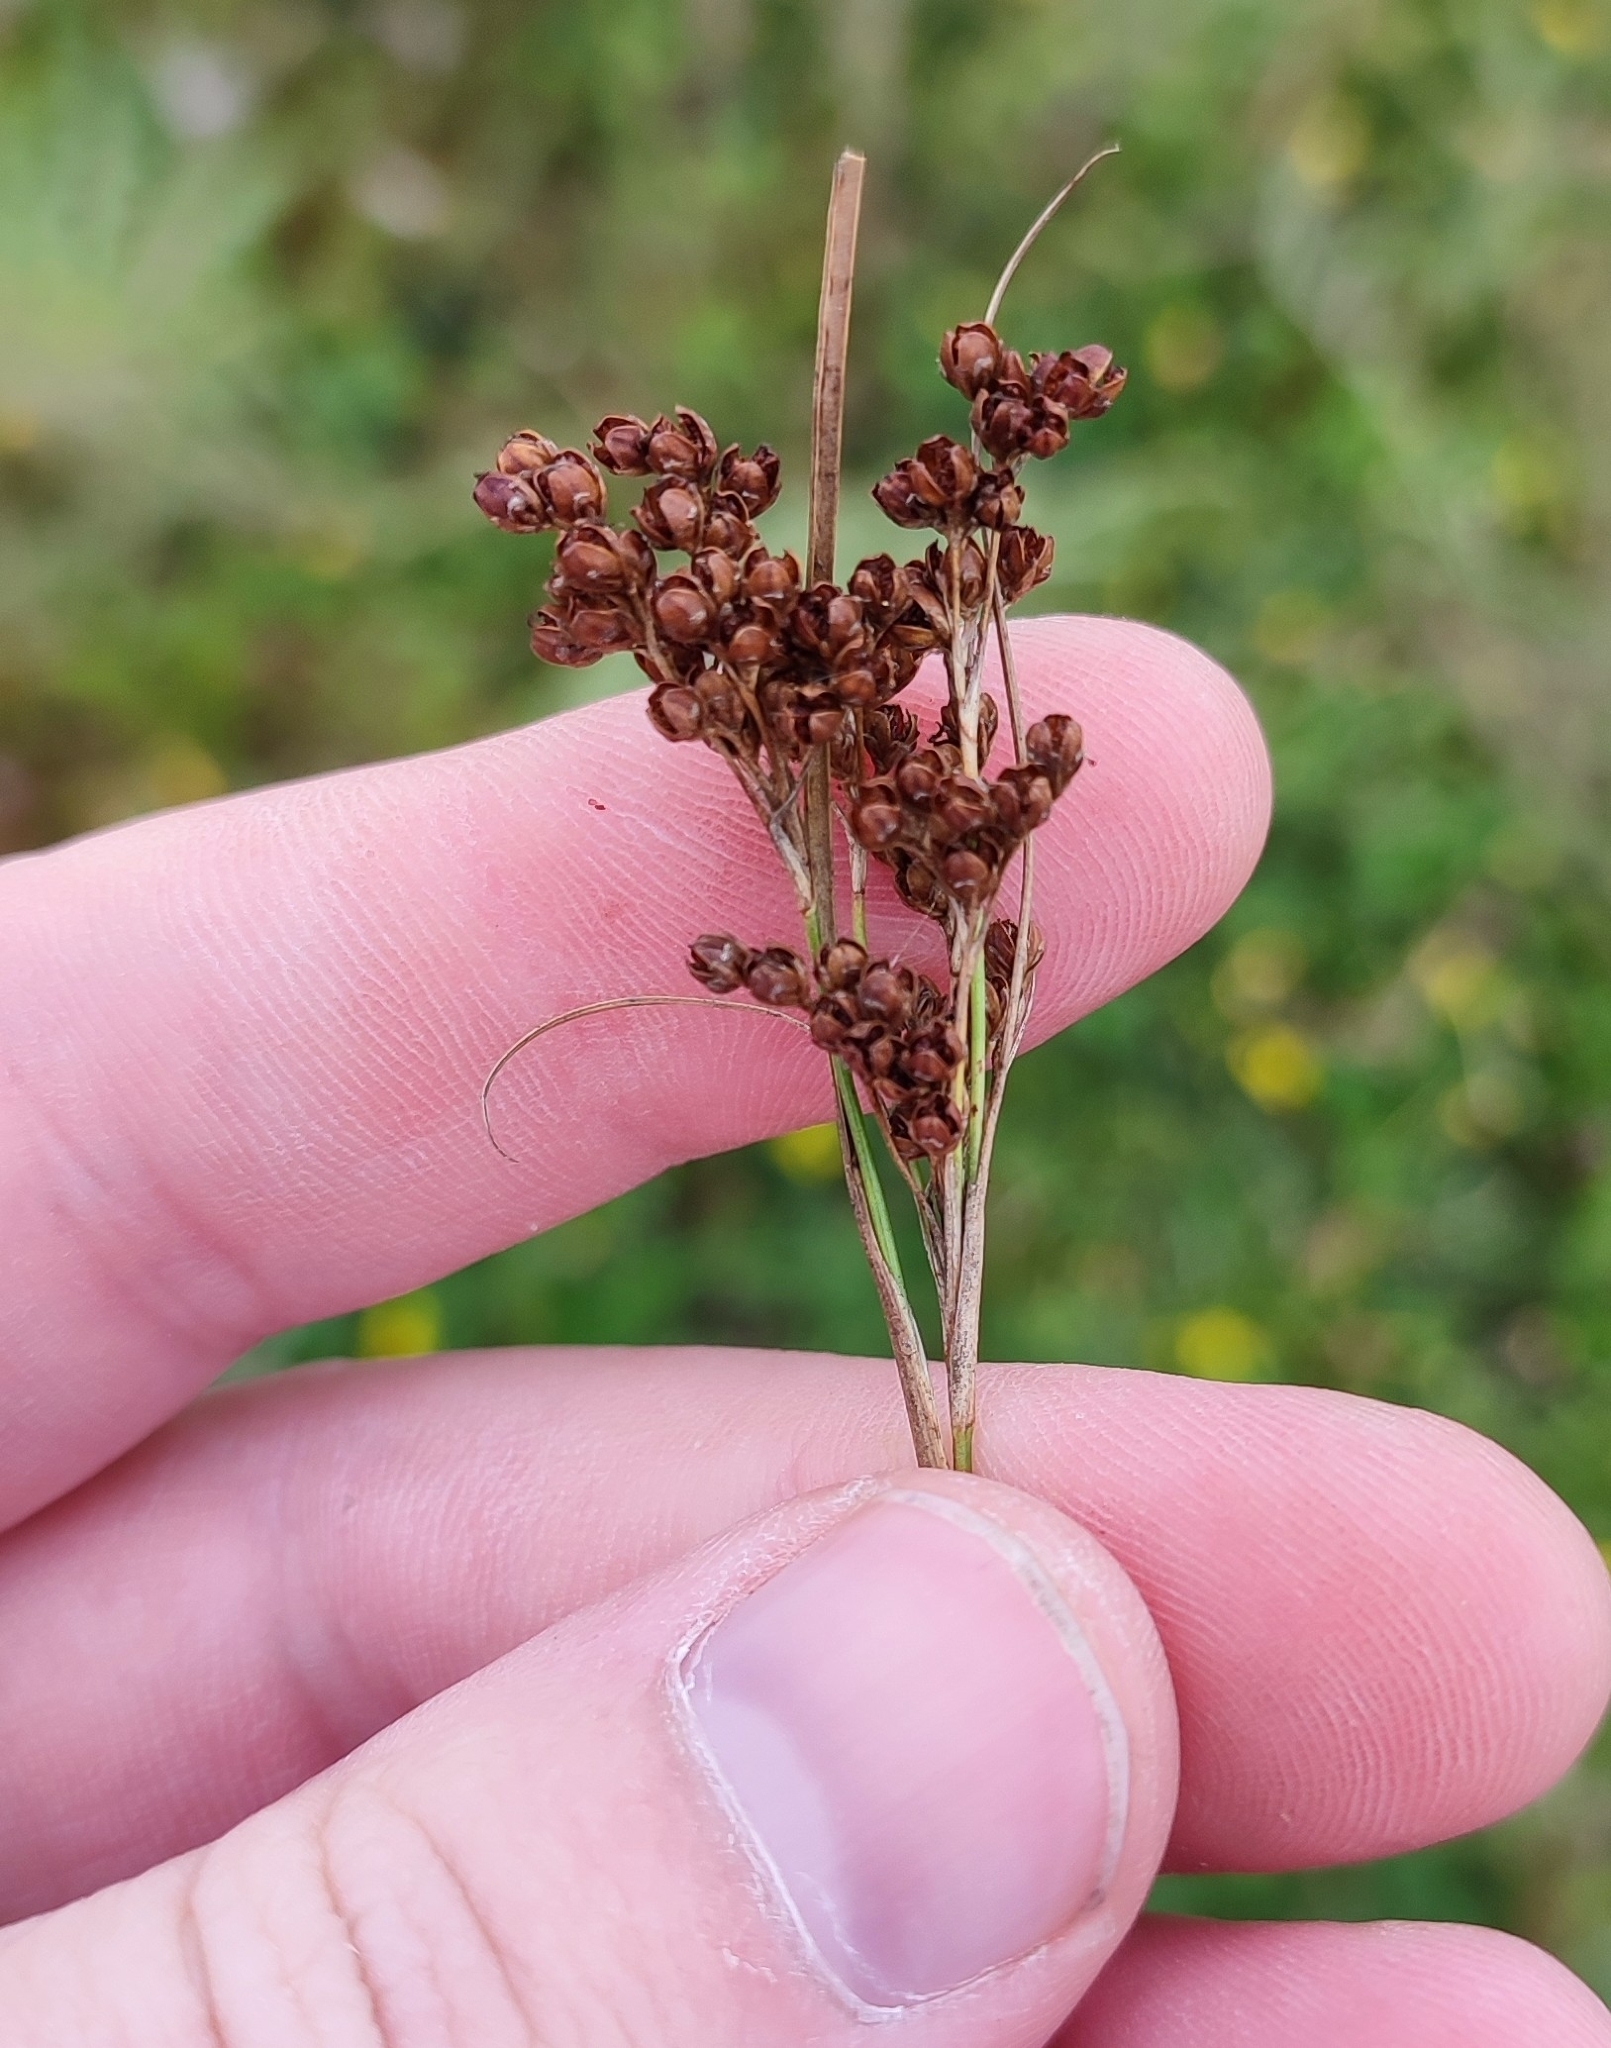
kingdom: Plantae
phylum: Tracheophyta
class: Liliopsida
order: Poales
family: Juncaceae
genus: Juncus
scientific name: Juncus compressus
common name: Round-fruited rush
